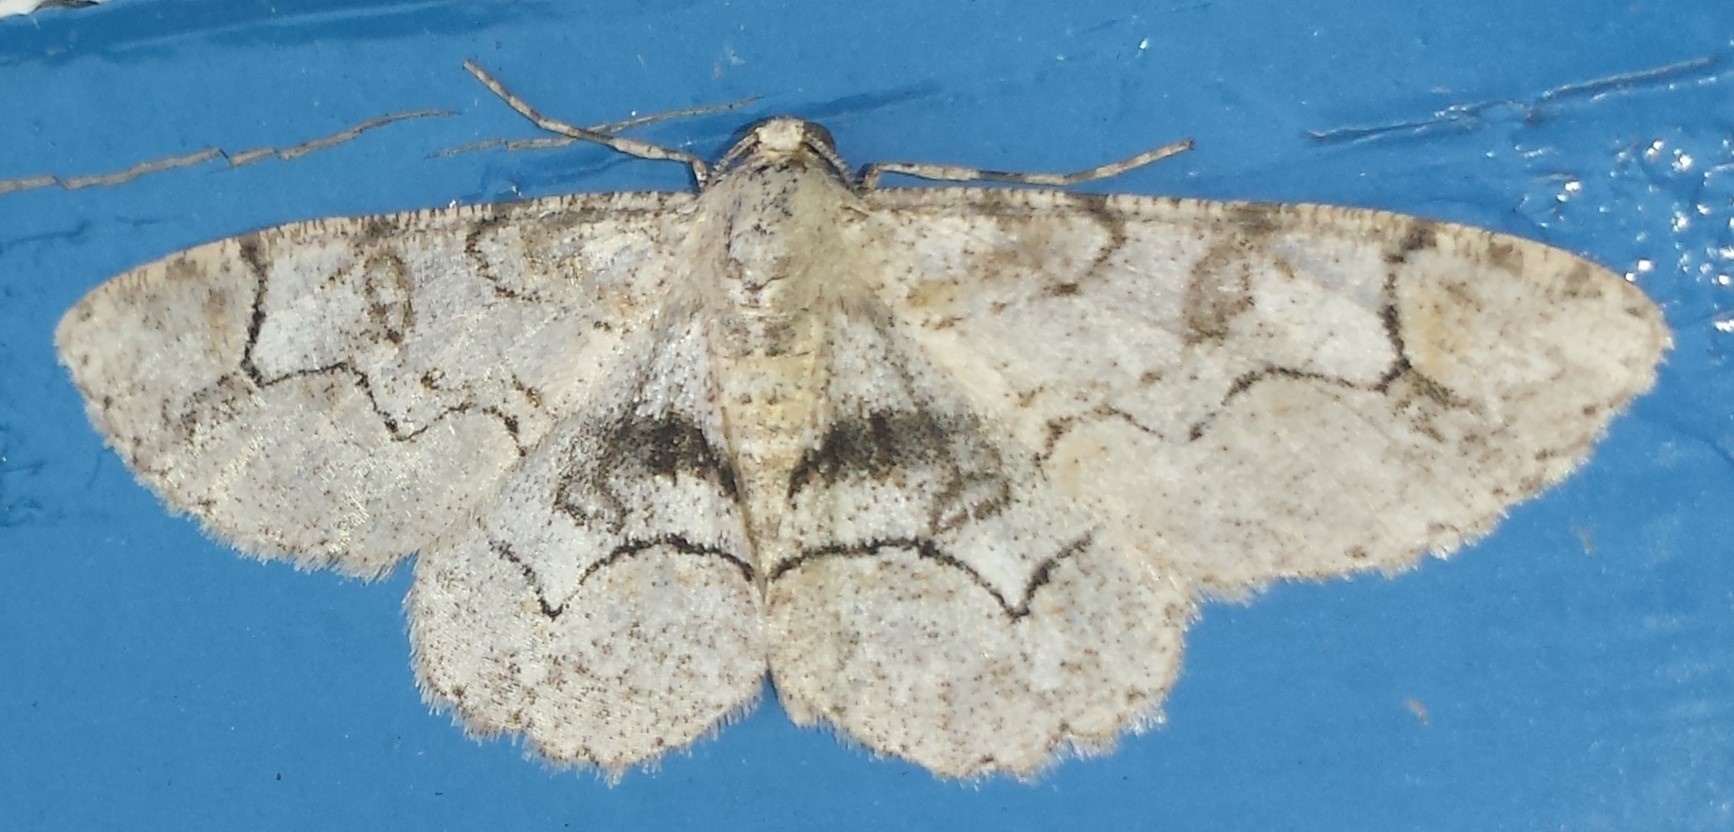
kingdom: Animalia
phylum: Arthropoda
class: Insecta
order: Lepidoptera
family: Geometridae
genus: Iridopsis
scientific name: Iridopsis larvaria
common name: Bent-line gray
